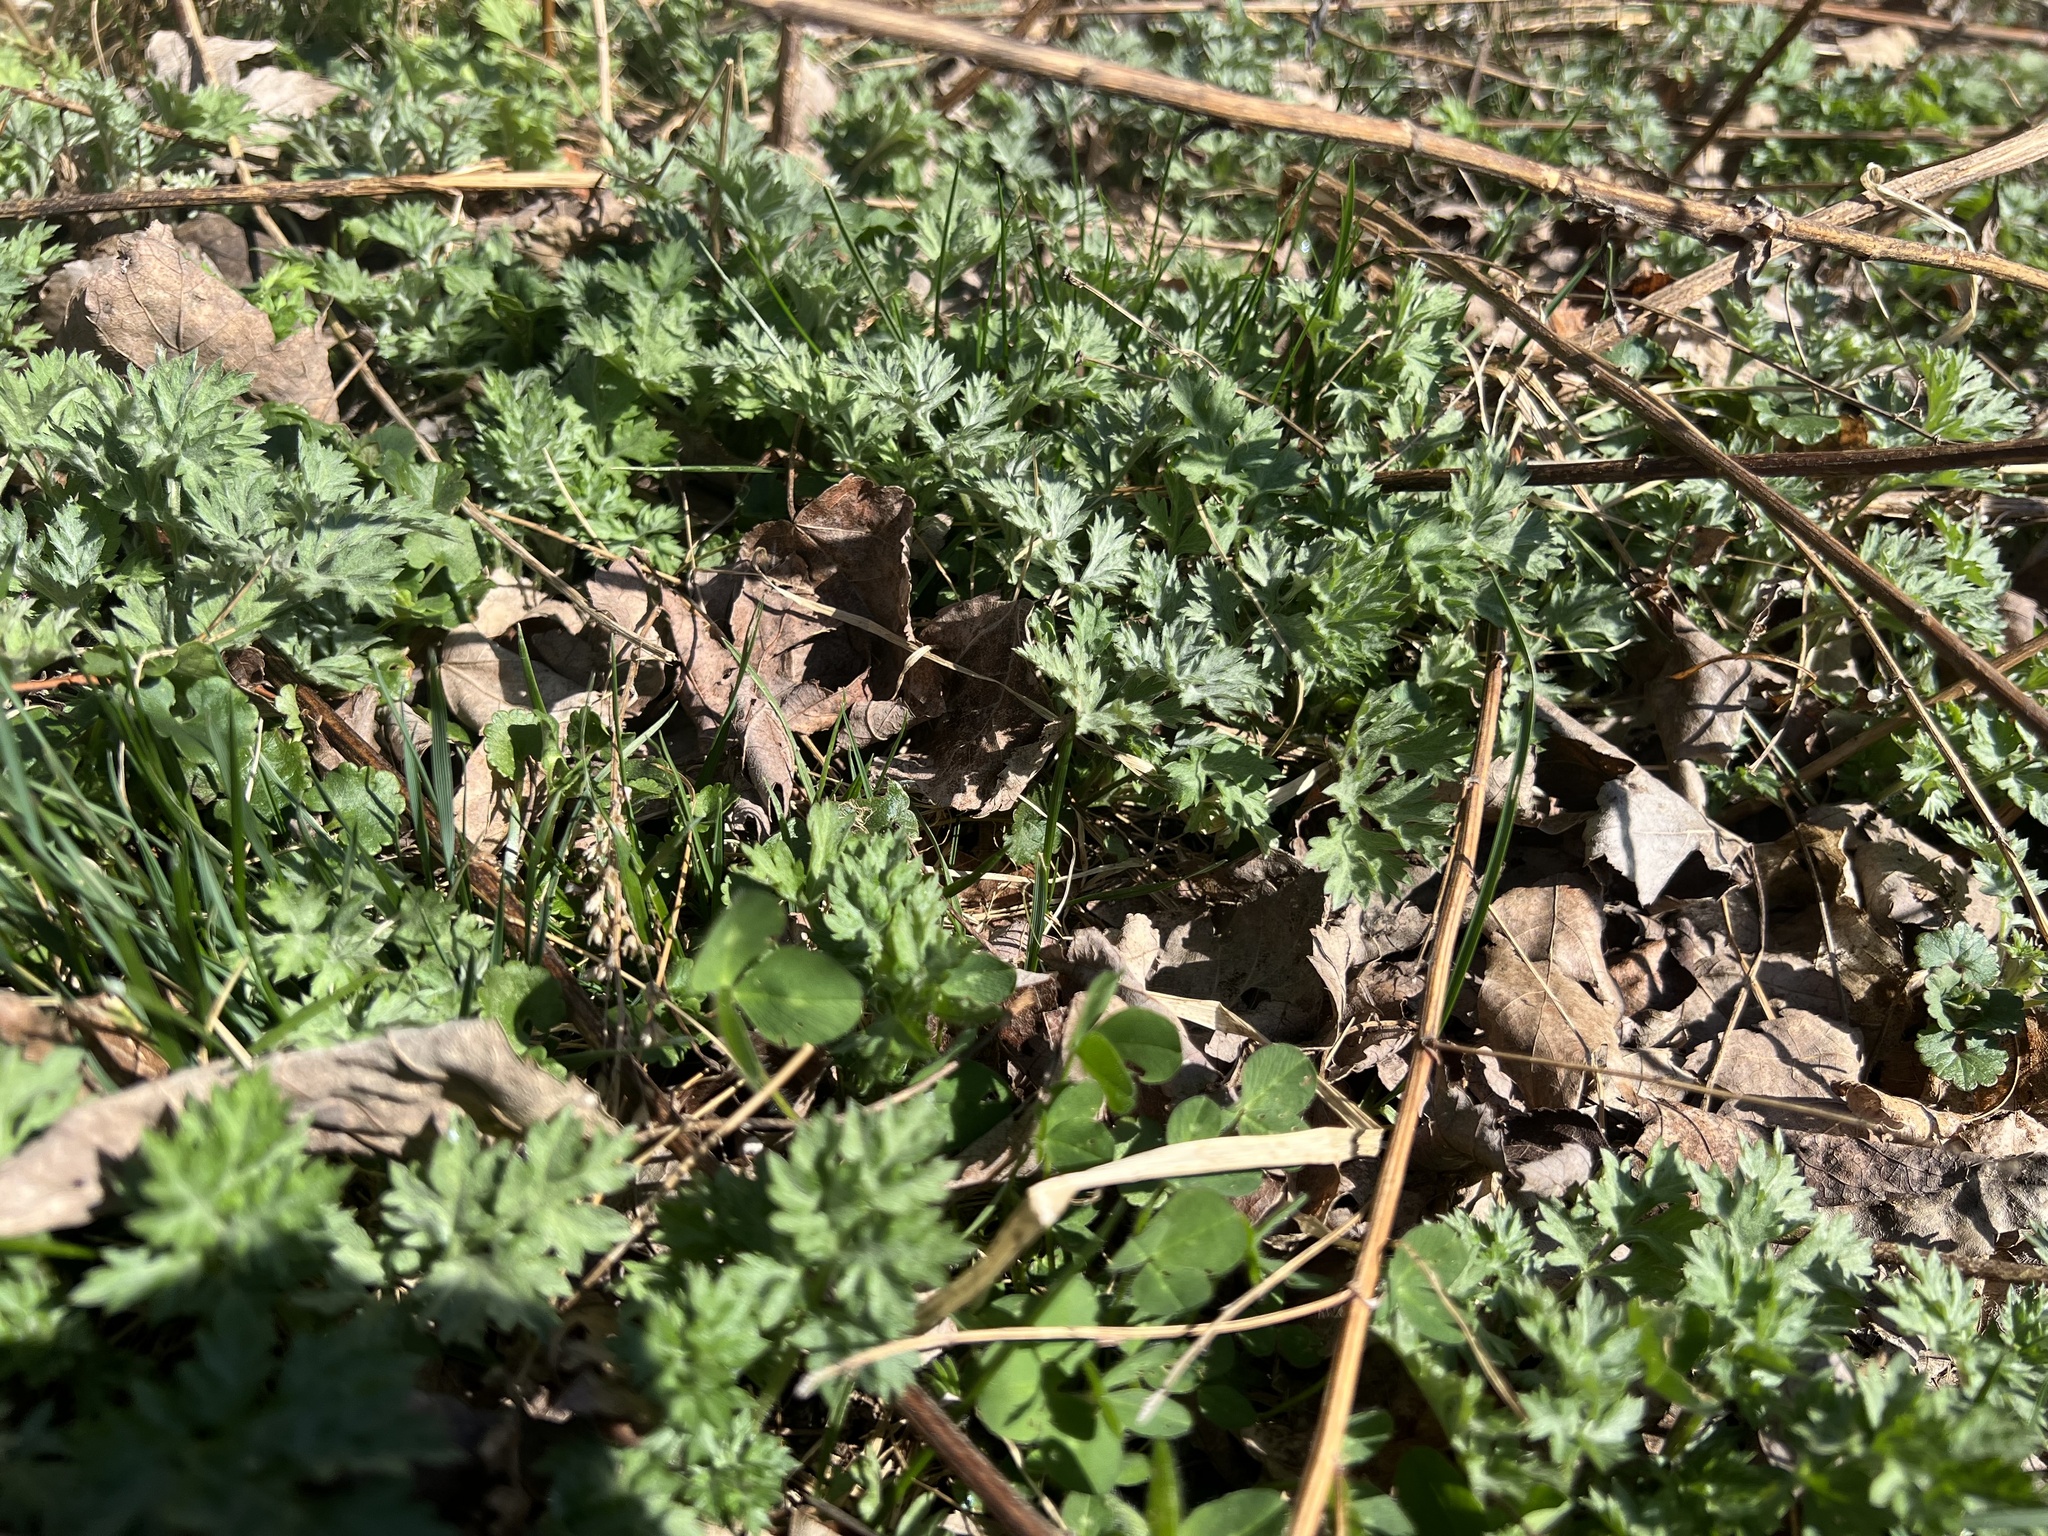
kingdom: Plantae
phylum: Tracheophyta
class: Magnoliopsida
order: Asterales
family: Asteraceae
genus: Artemisia
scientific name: Artemisia vulgaris
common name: Mugwort
